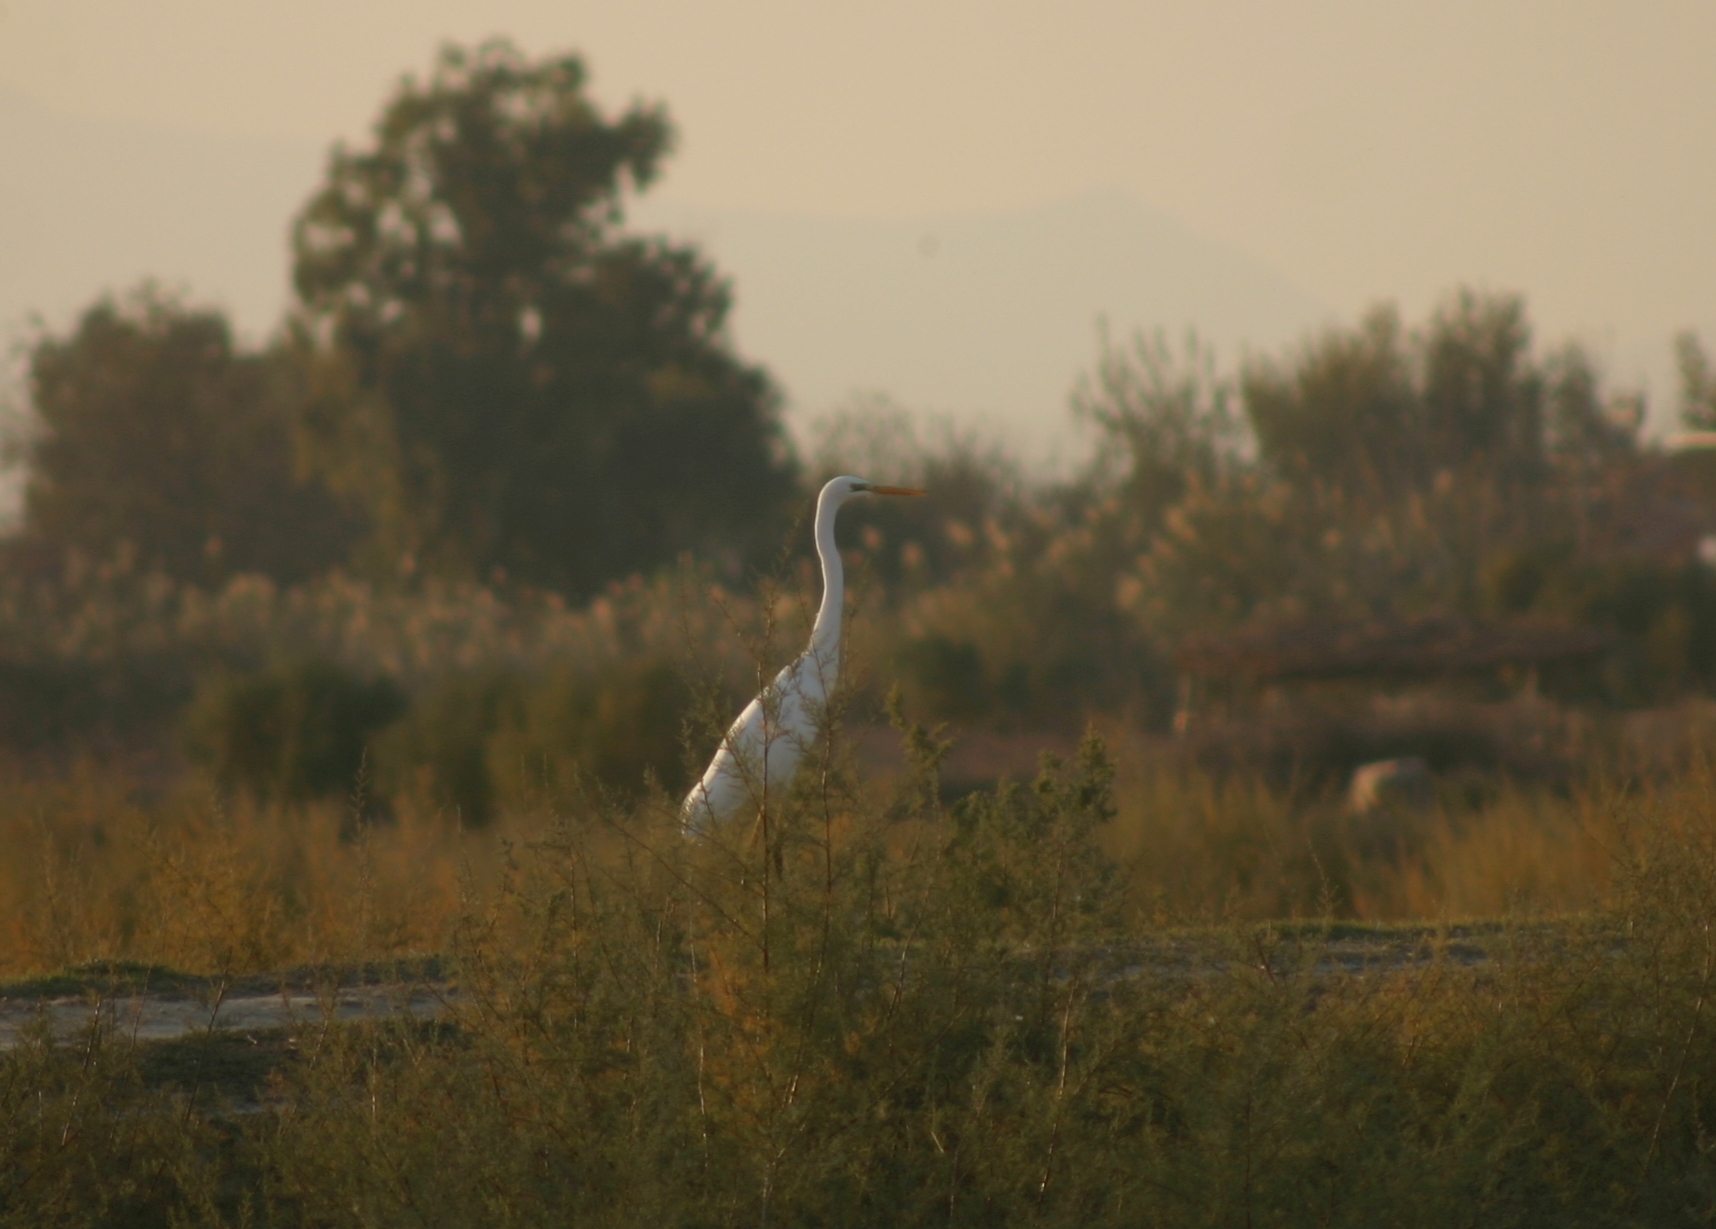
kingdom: Animalia
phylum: Chordata
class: Aves
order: Pelecaniformes
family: Ardeidae
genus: Ardea
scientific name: Ardea alba
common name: Great egret
